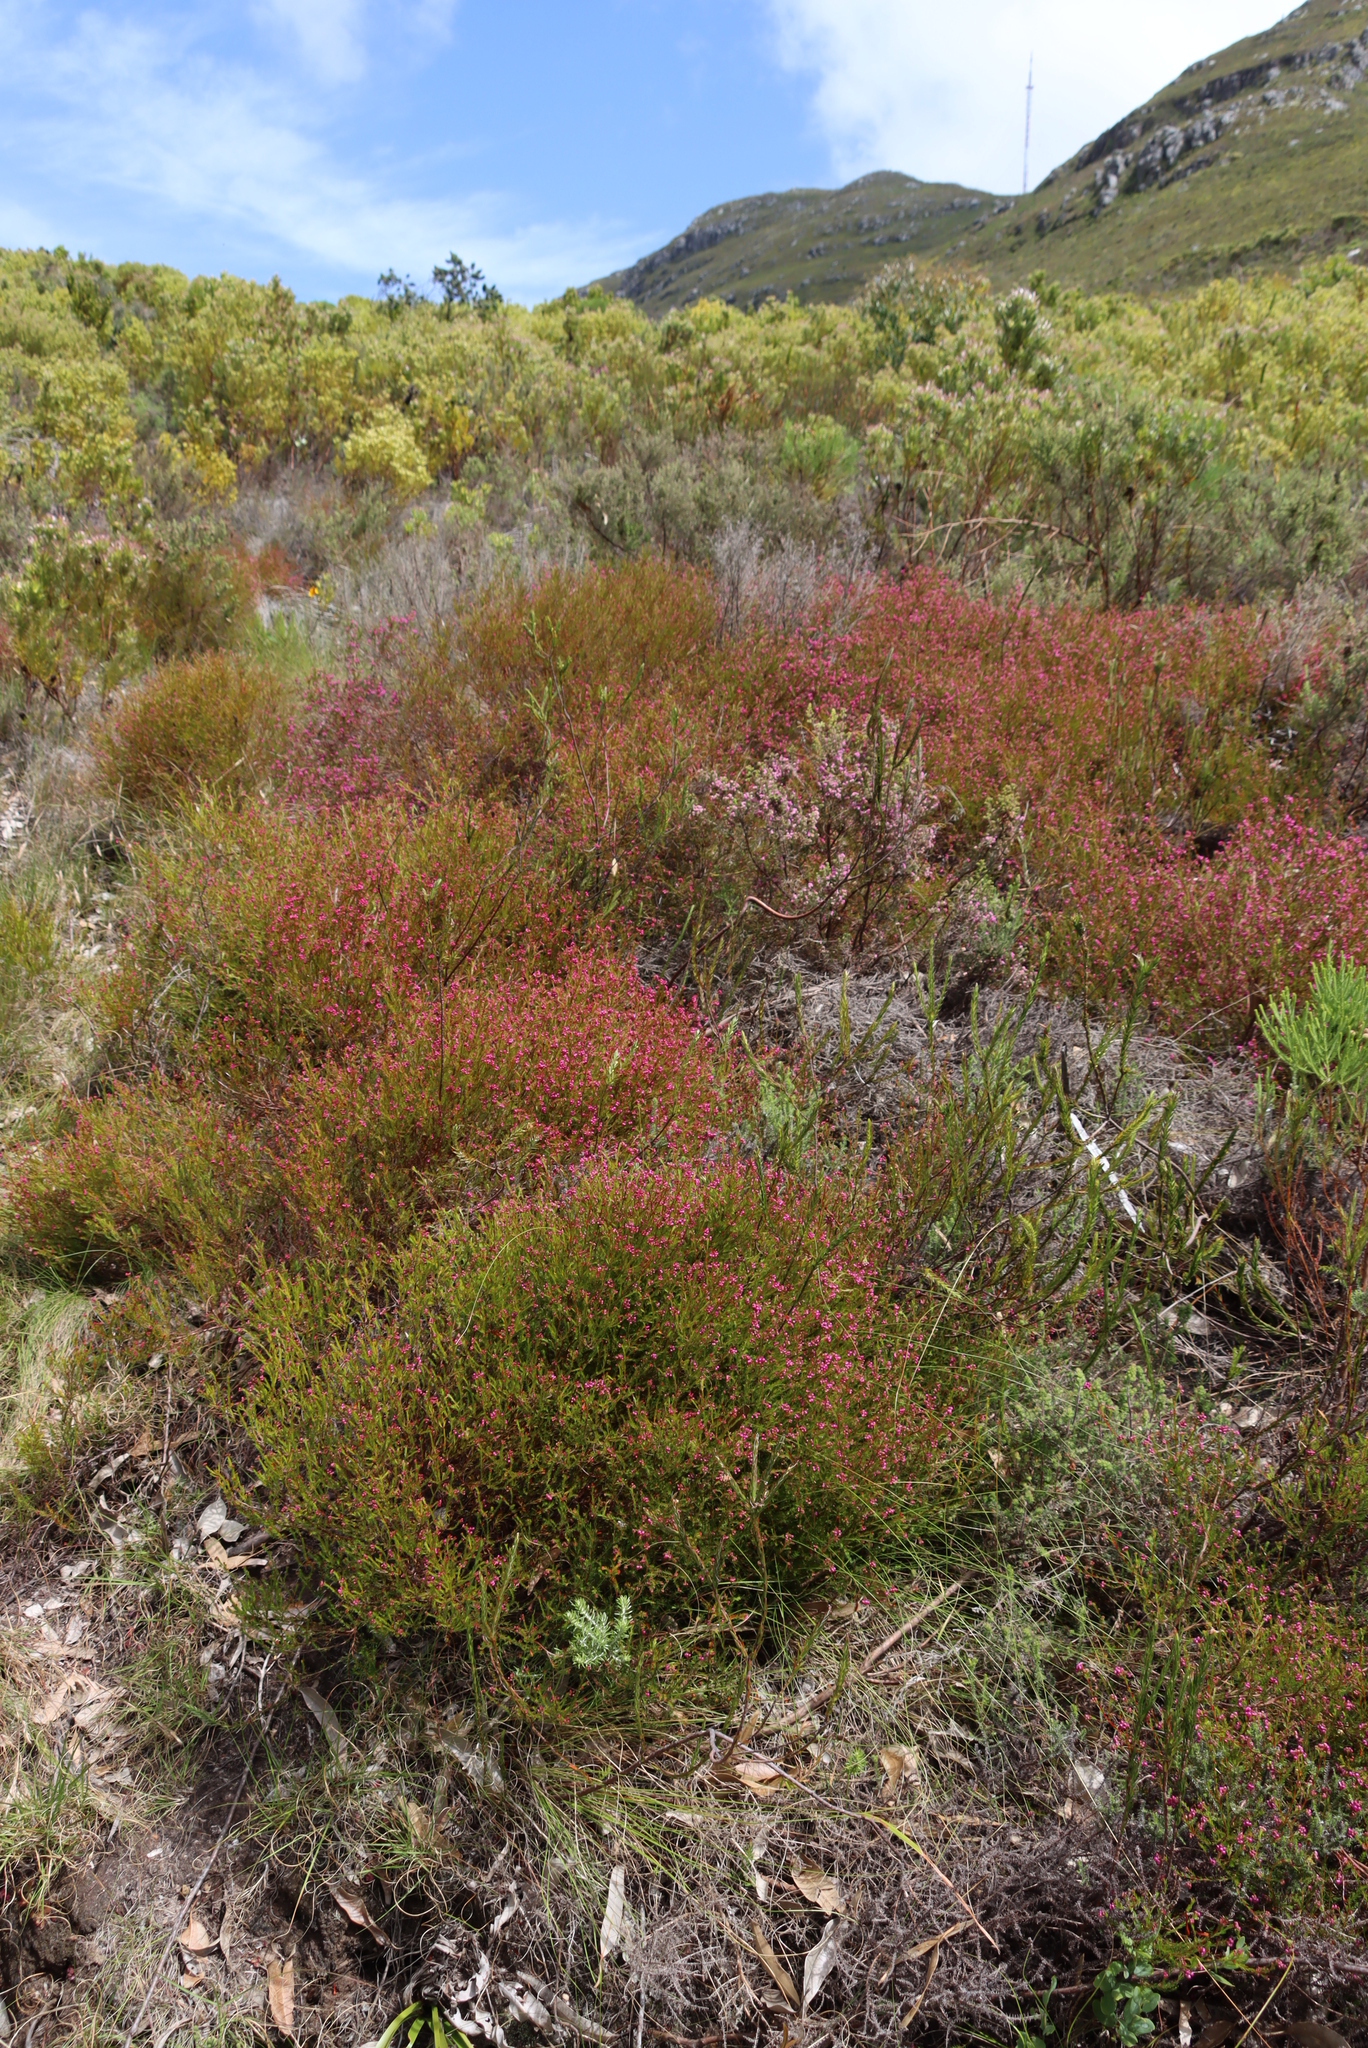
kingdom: Plantae
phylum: Tracheophyta
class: Magnoliopsida
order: Ericales
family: Ericaceae
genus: Erica
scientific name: Erica multumbellifera
